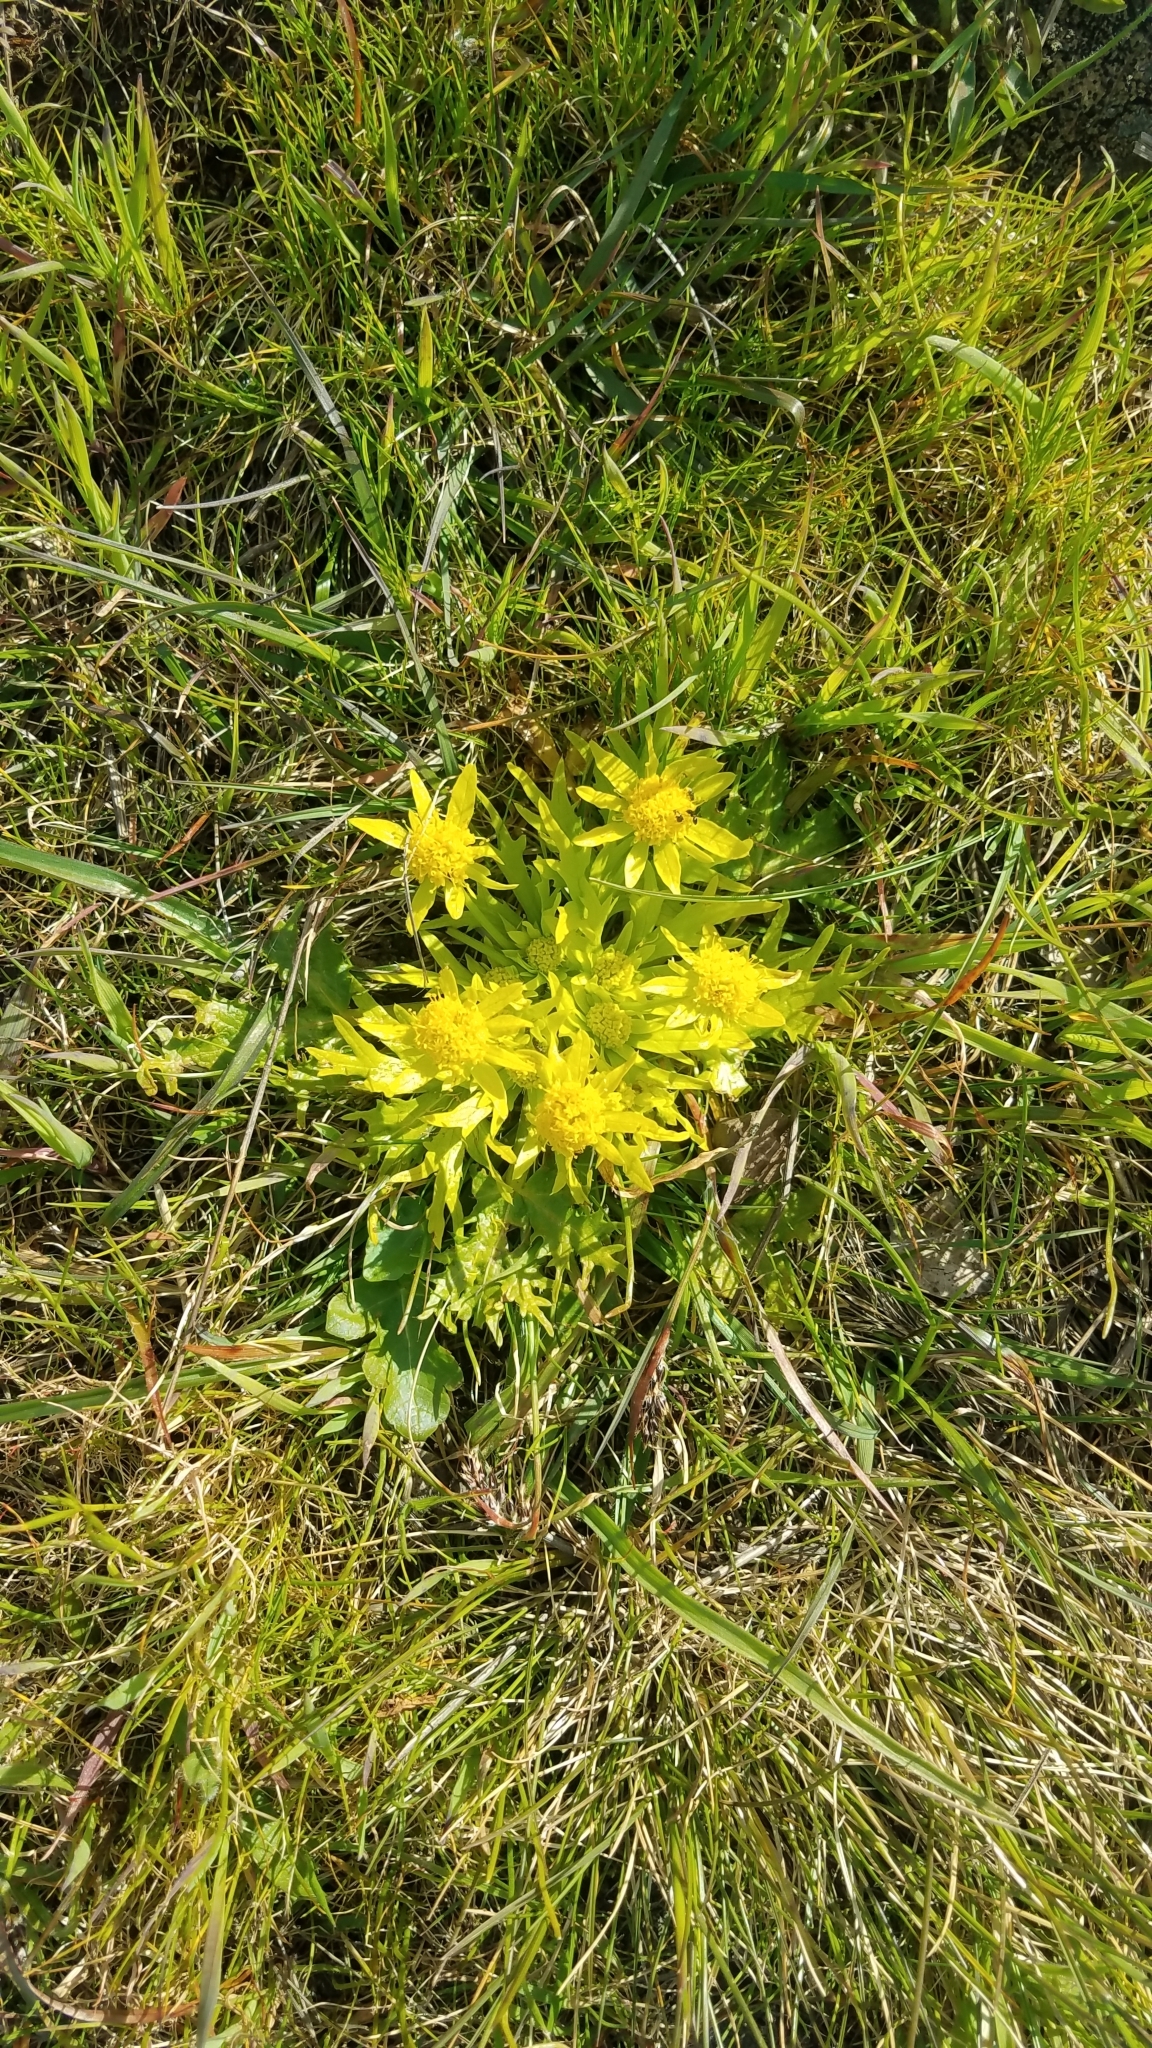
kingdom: Plantae
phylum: Tracheophyta
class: Magnoliopsida
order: Apiales
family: Apiaceae
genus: Sanicula
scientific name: Sanicula arctopoides
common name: Footsteps-of-spring
